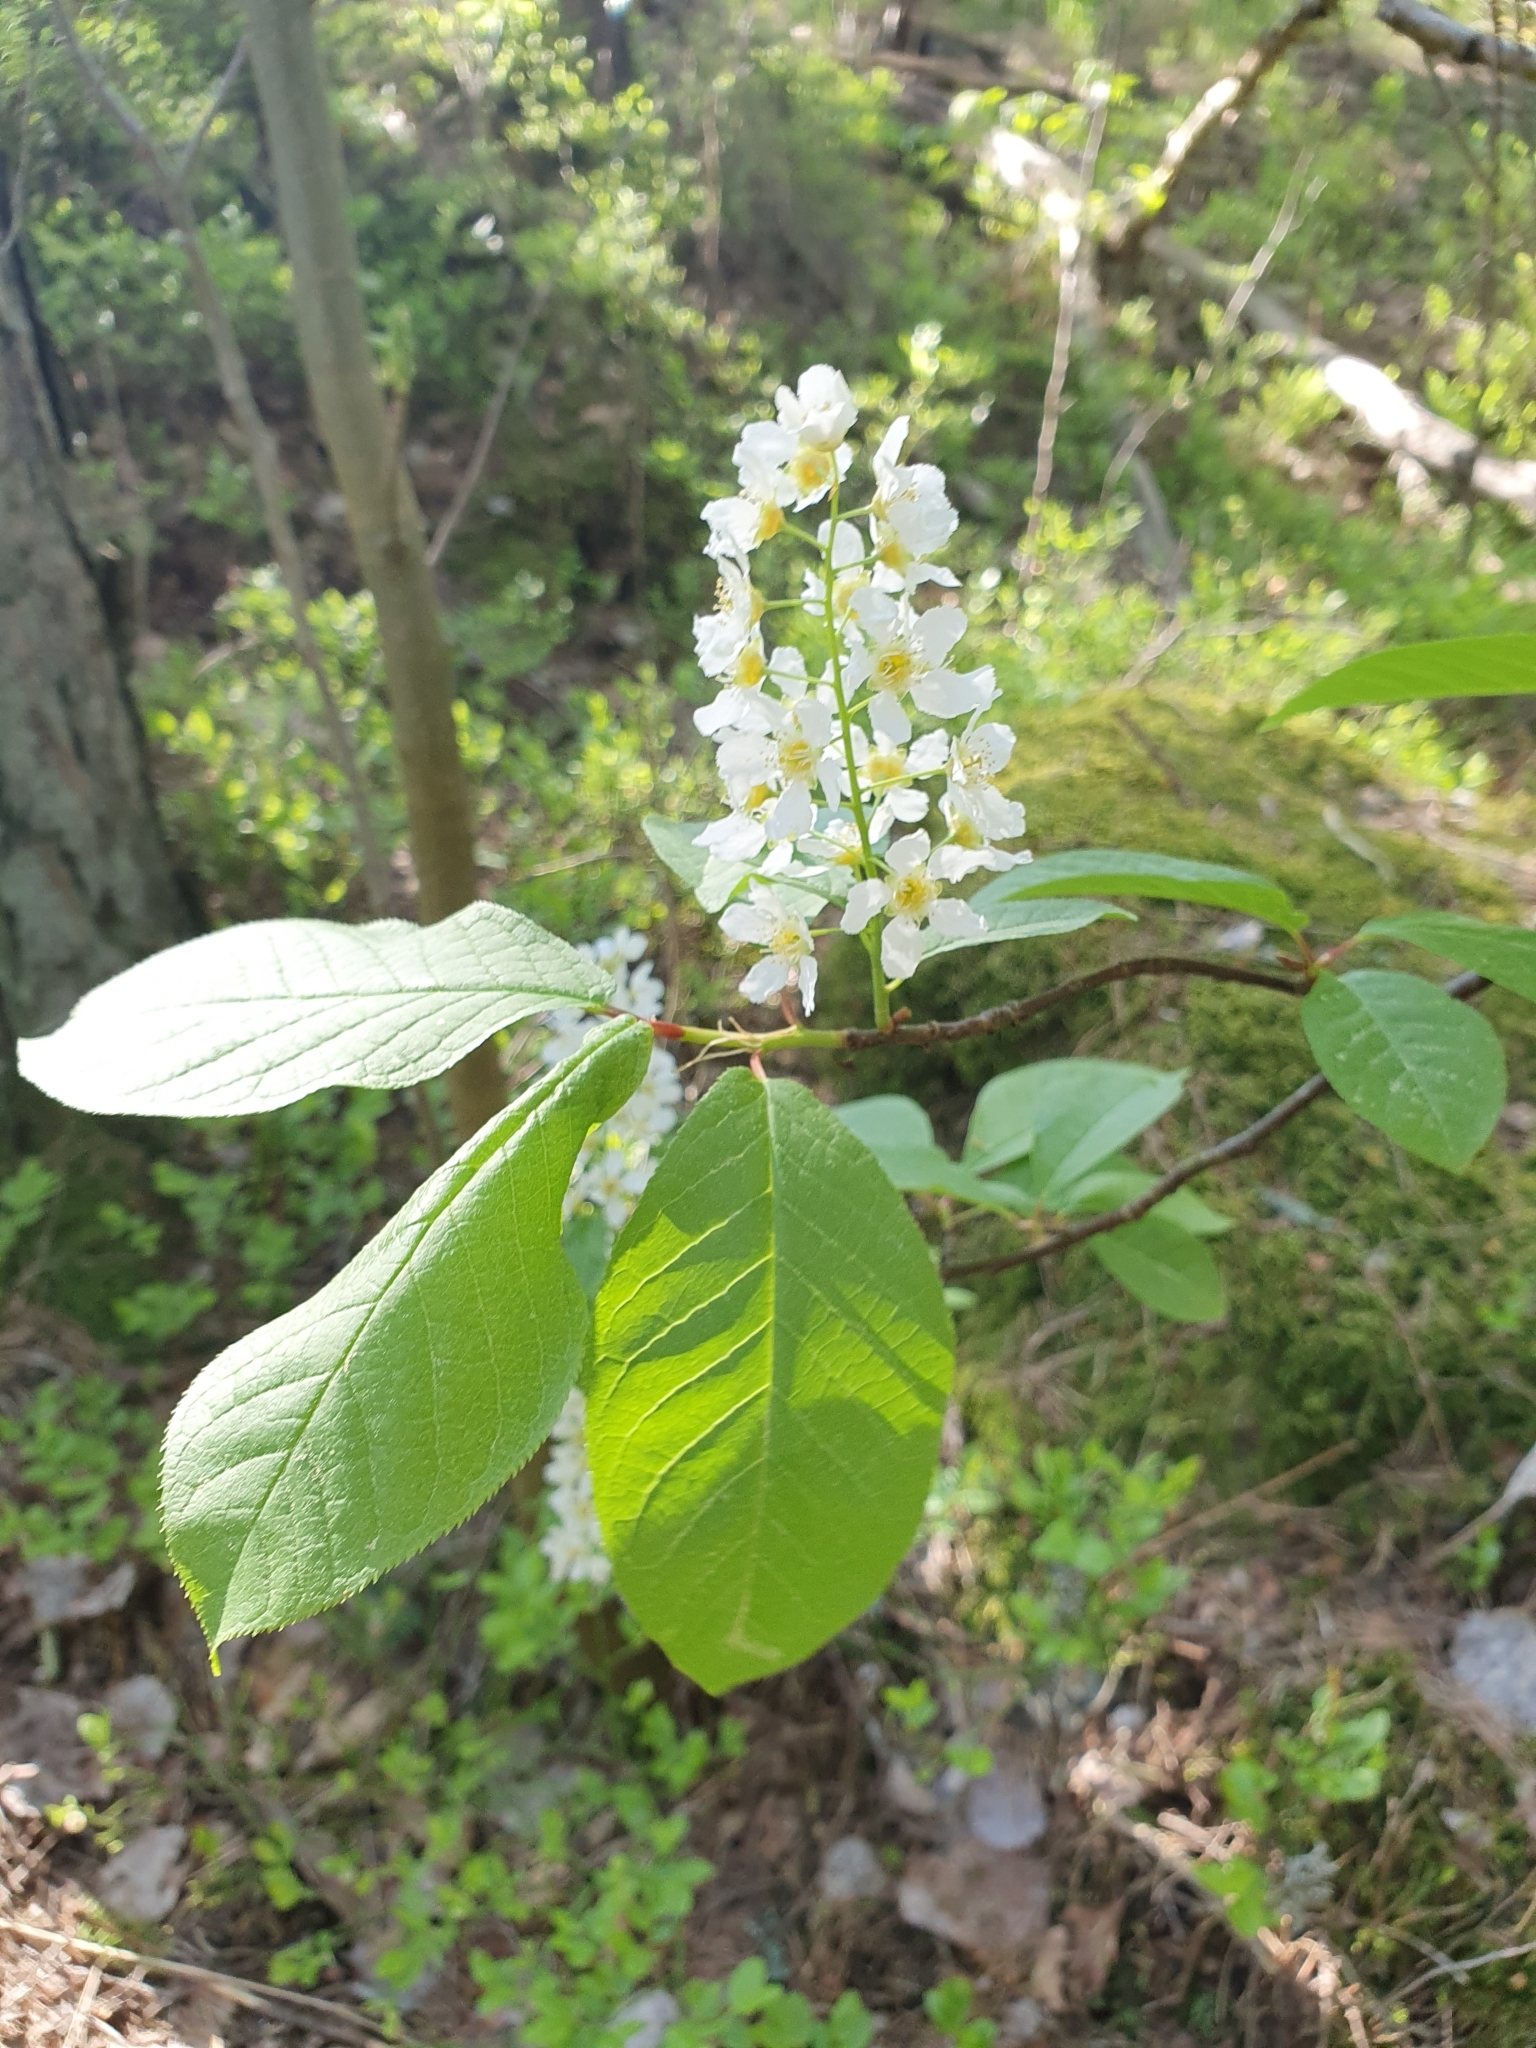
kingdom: Plantae
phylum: Tracheophyta
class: Magnoliopsida
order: Rosales
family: Rosaceae
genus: Prunus
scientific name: Prunus padus
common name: Bird cherry
